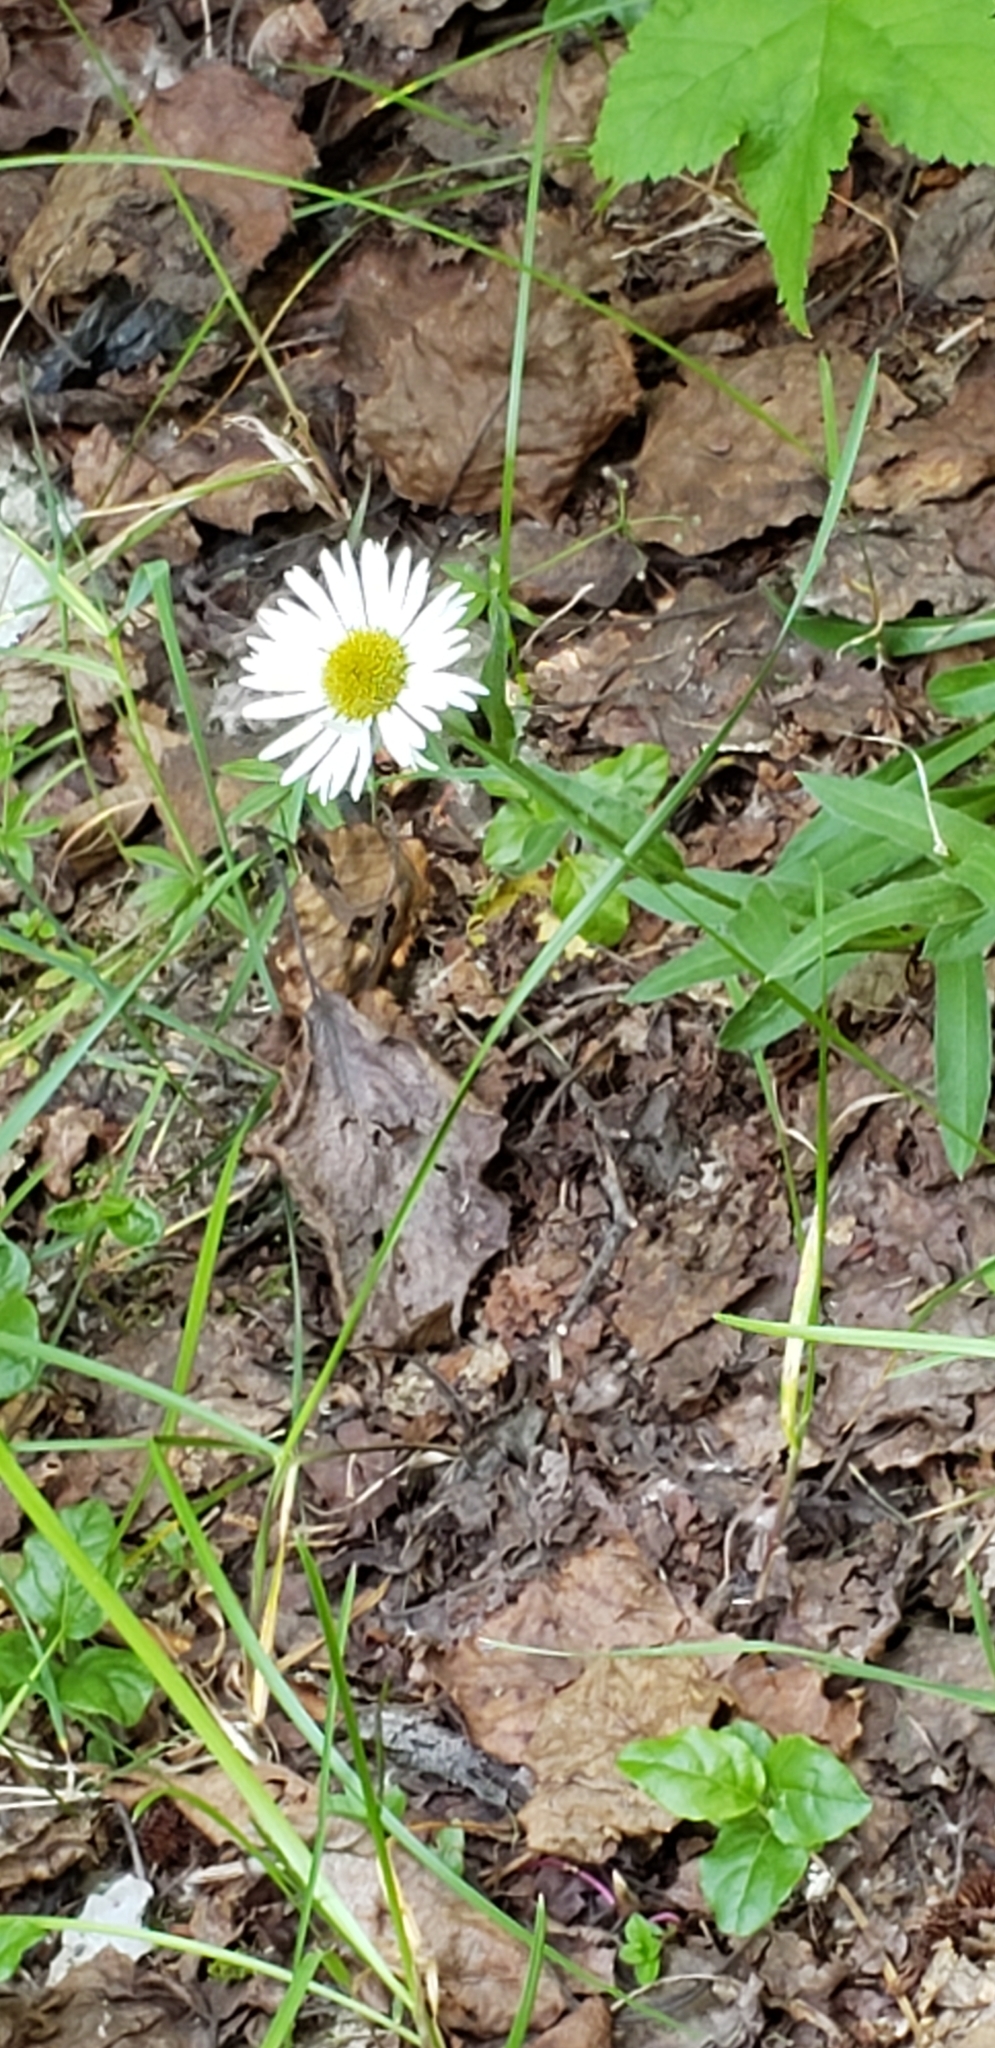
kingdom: Plantae
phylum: Tracheophyta
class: Magnoliopsida
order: Asterales
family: Asteraceae
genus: Erigeron
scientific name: Erigeron peregrinus
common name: Peregrine fleabane
